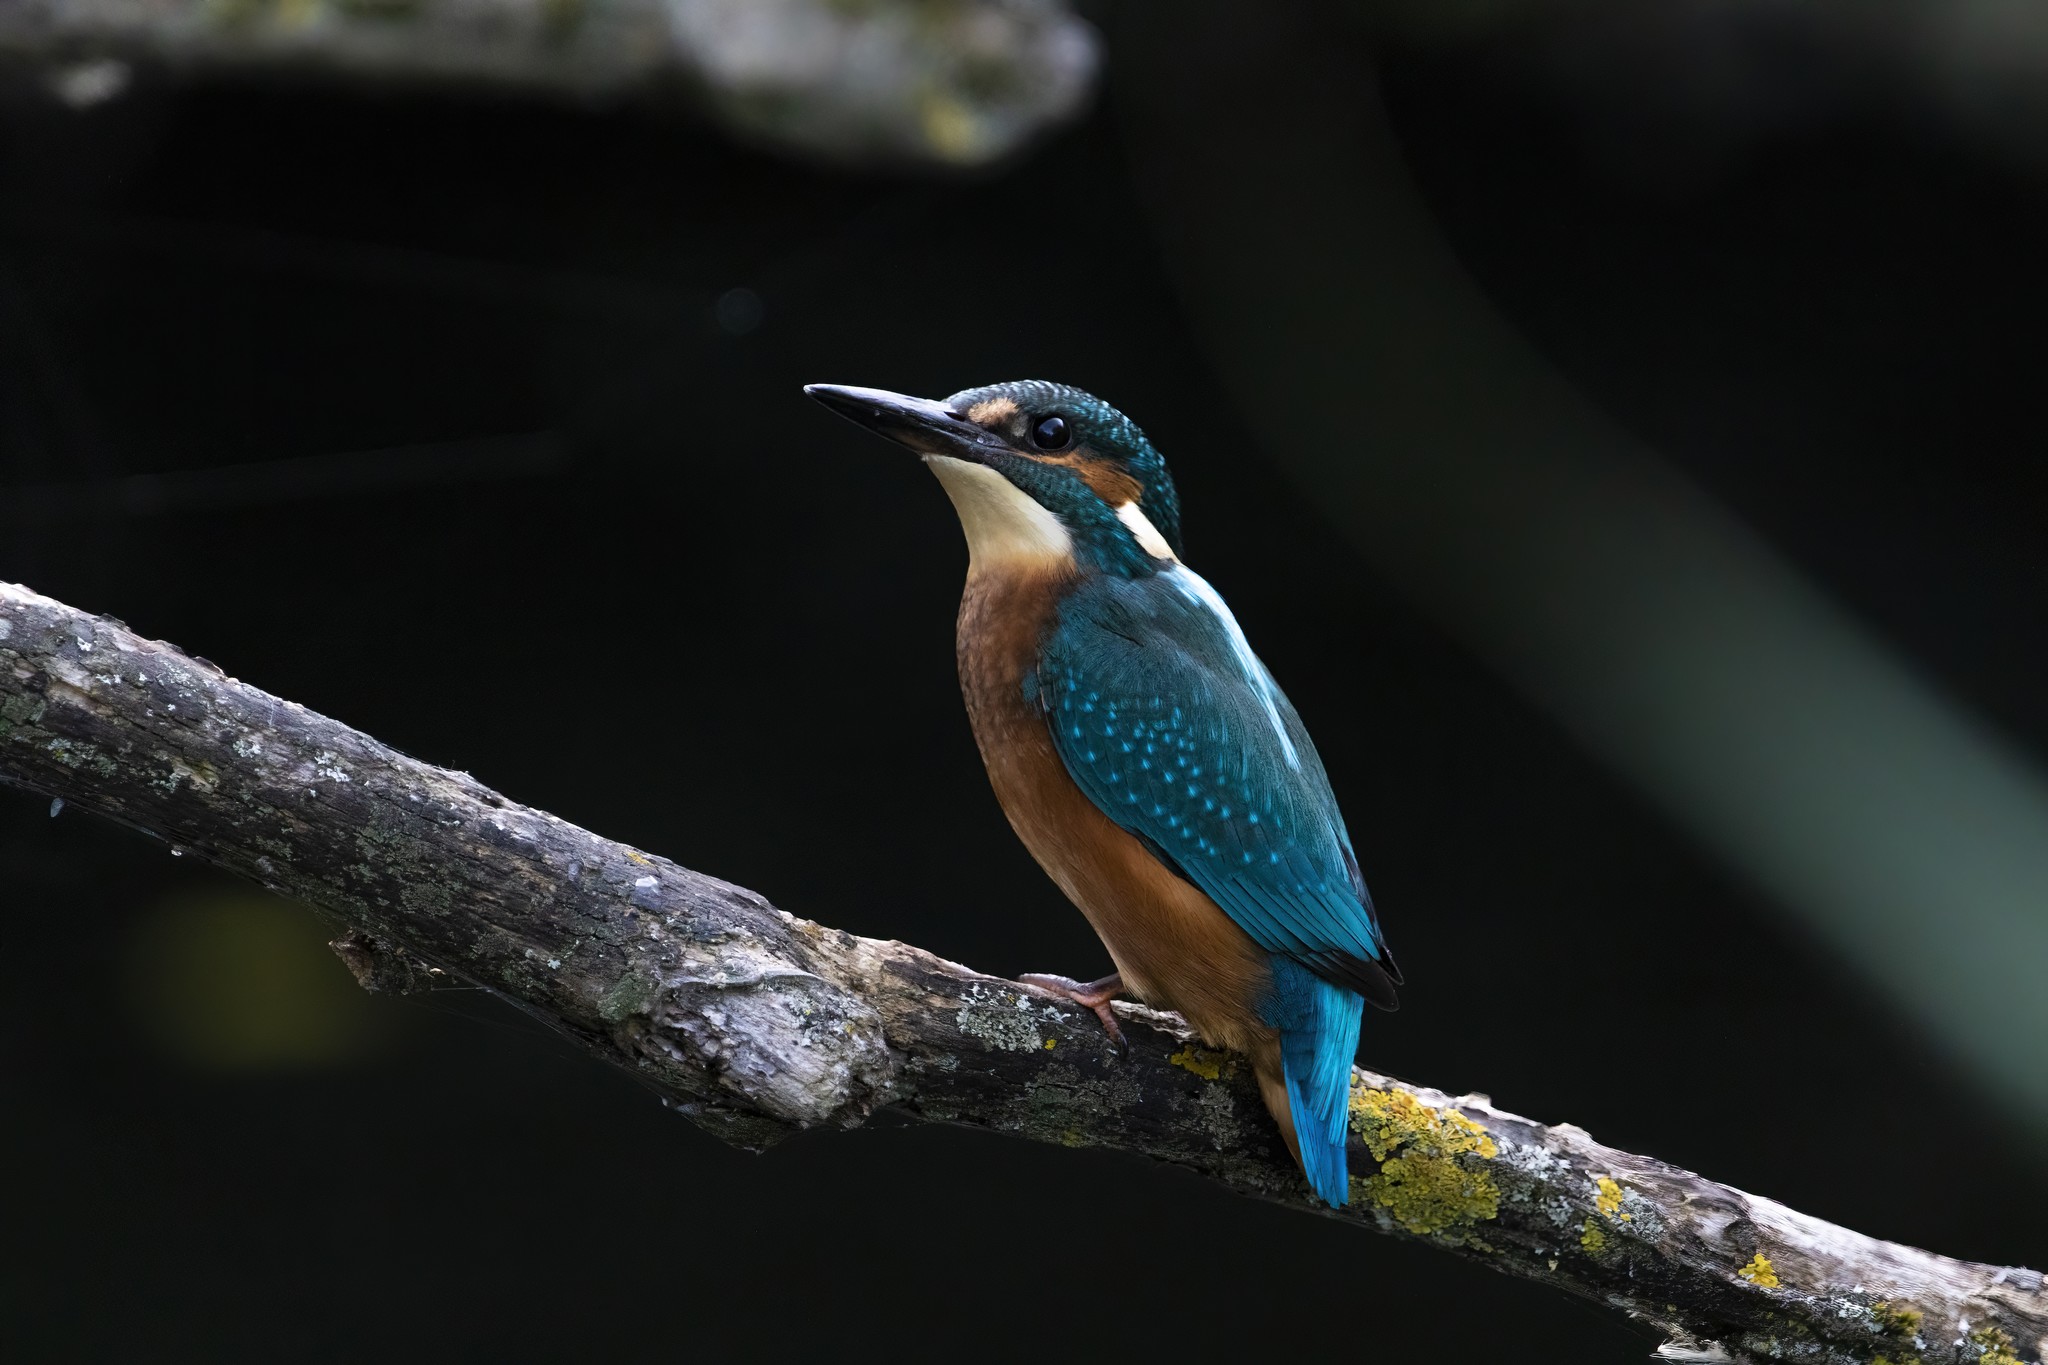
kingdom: Animalia
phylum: Chordata
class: Aves
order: Coraciiformes
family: Alcedinidae
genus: Alcedo
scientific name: Alcedo atthis
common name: Common kingfisher
